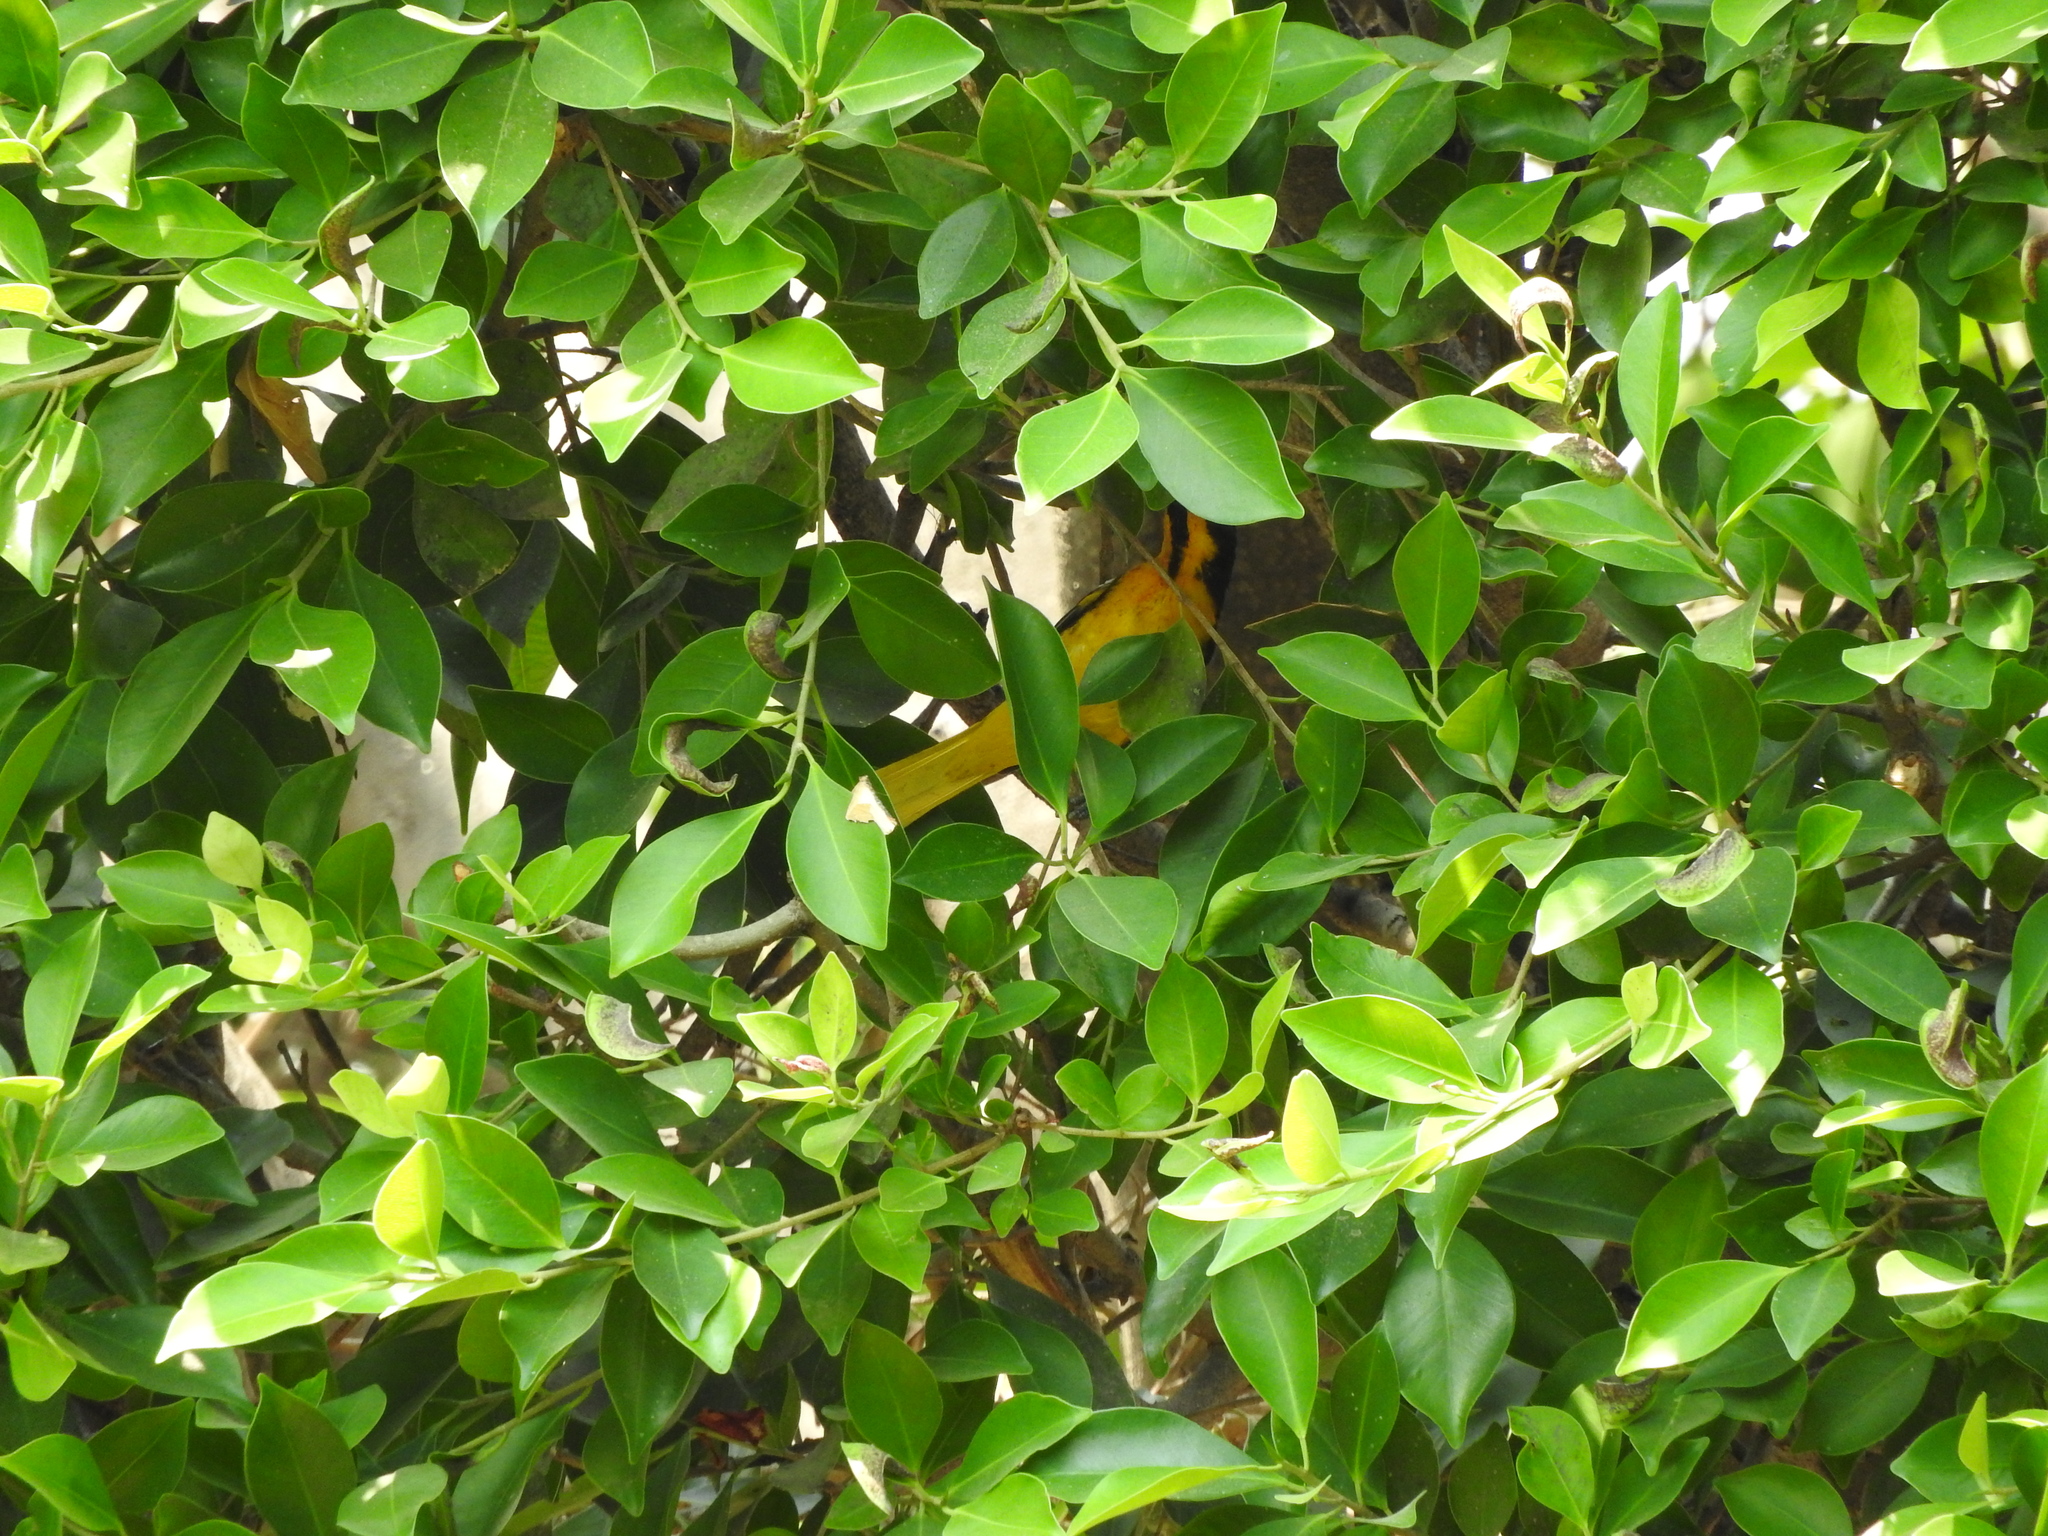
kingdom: Animalia
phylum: Chordata
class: Aves
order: Passeriformes
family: Icteridae
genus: Icterus
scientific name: Icterus abeillei
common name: Black-backed oriole
